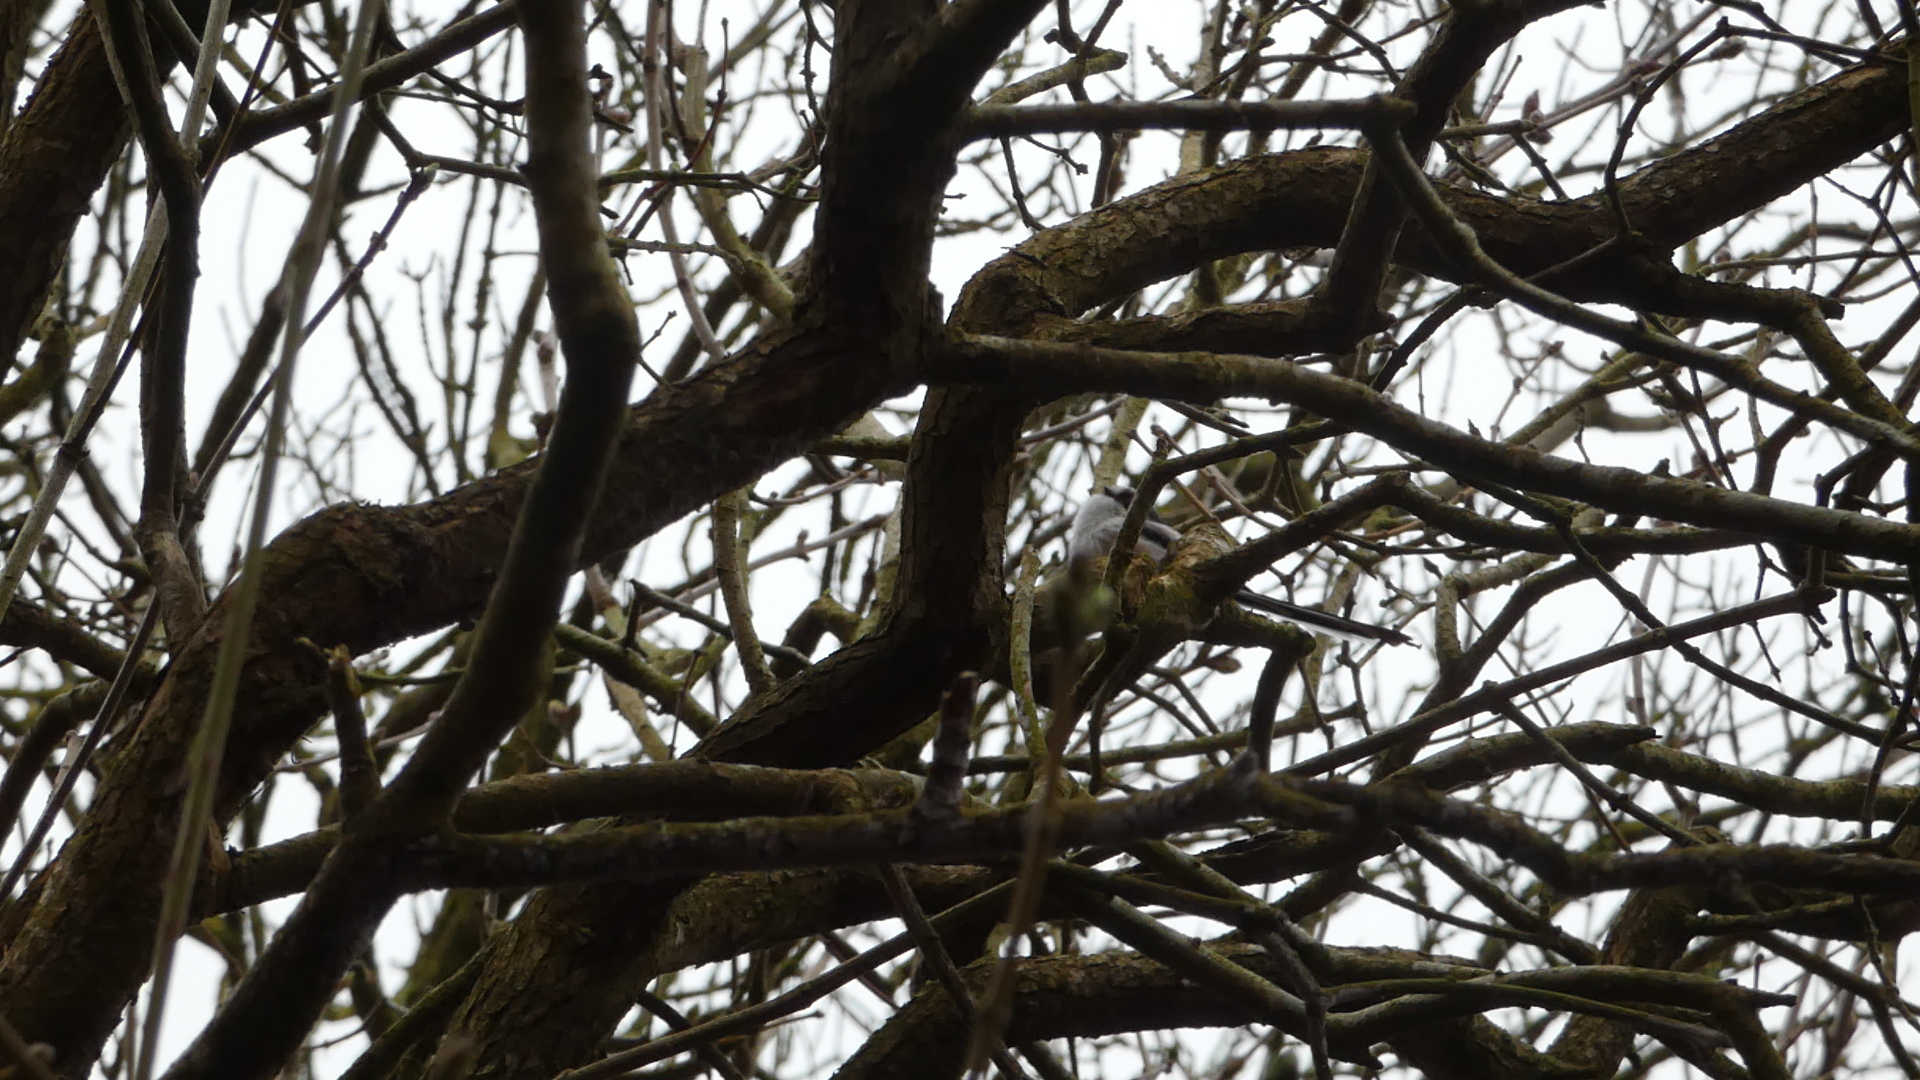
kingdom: Animalia
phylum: Chordata
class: Aves
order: Passeriformes
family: Aegithalidae
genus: Aegithalos
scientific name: Aegithalos caudatus
